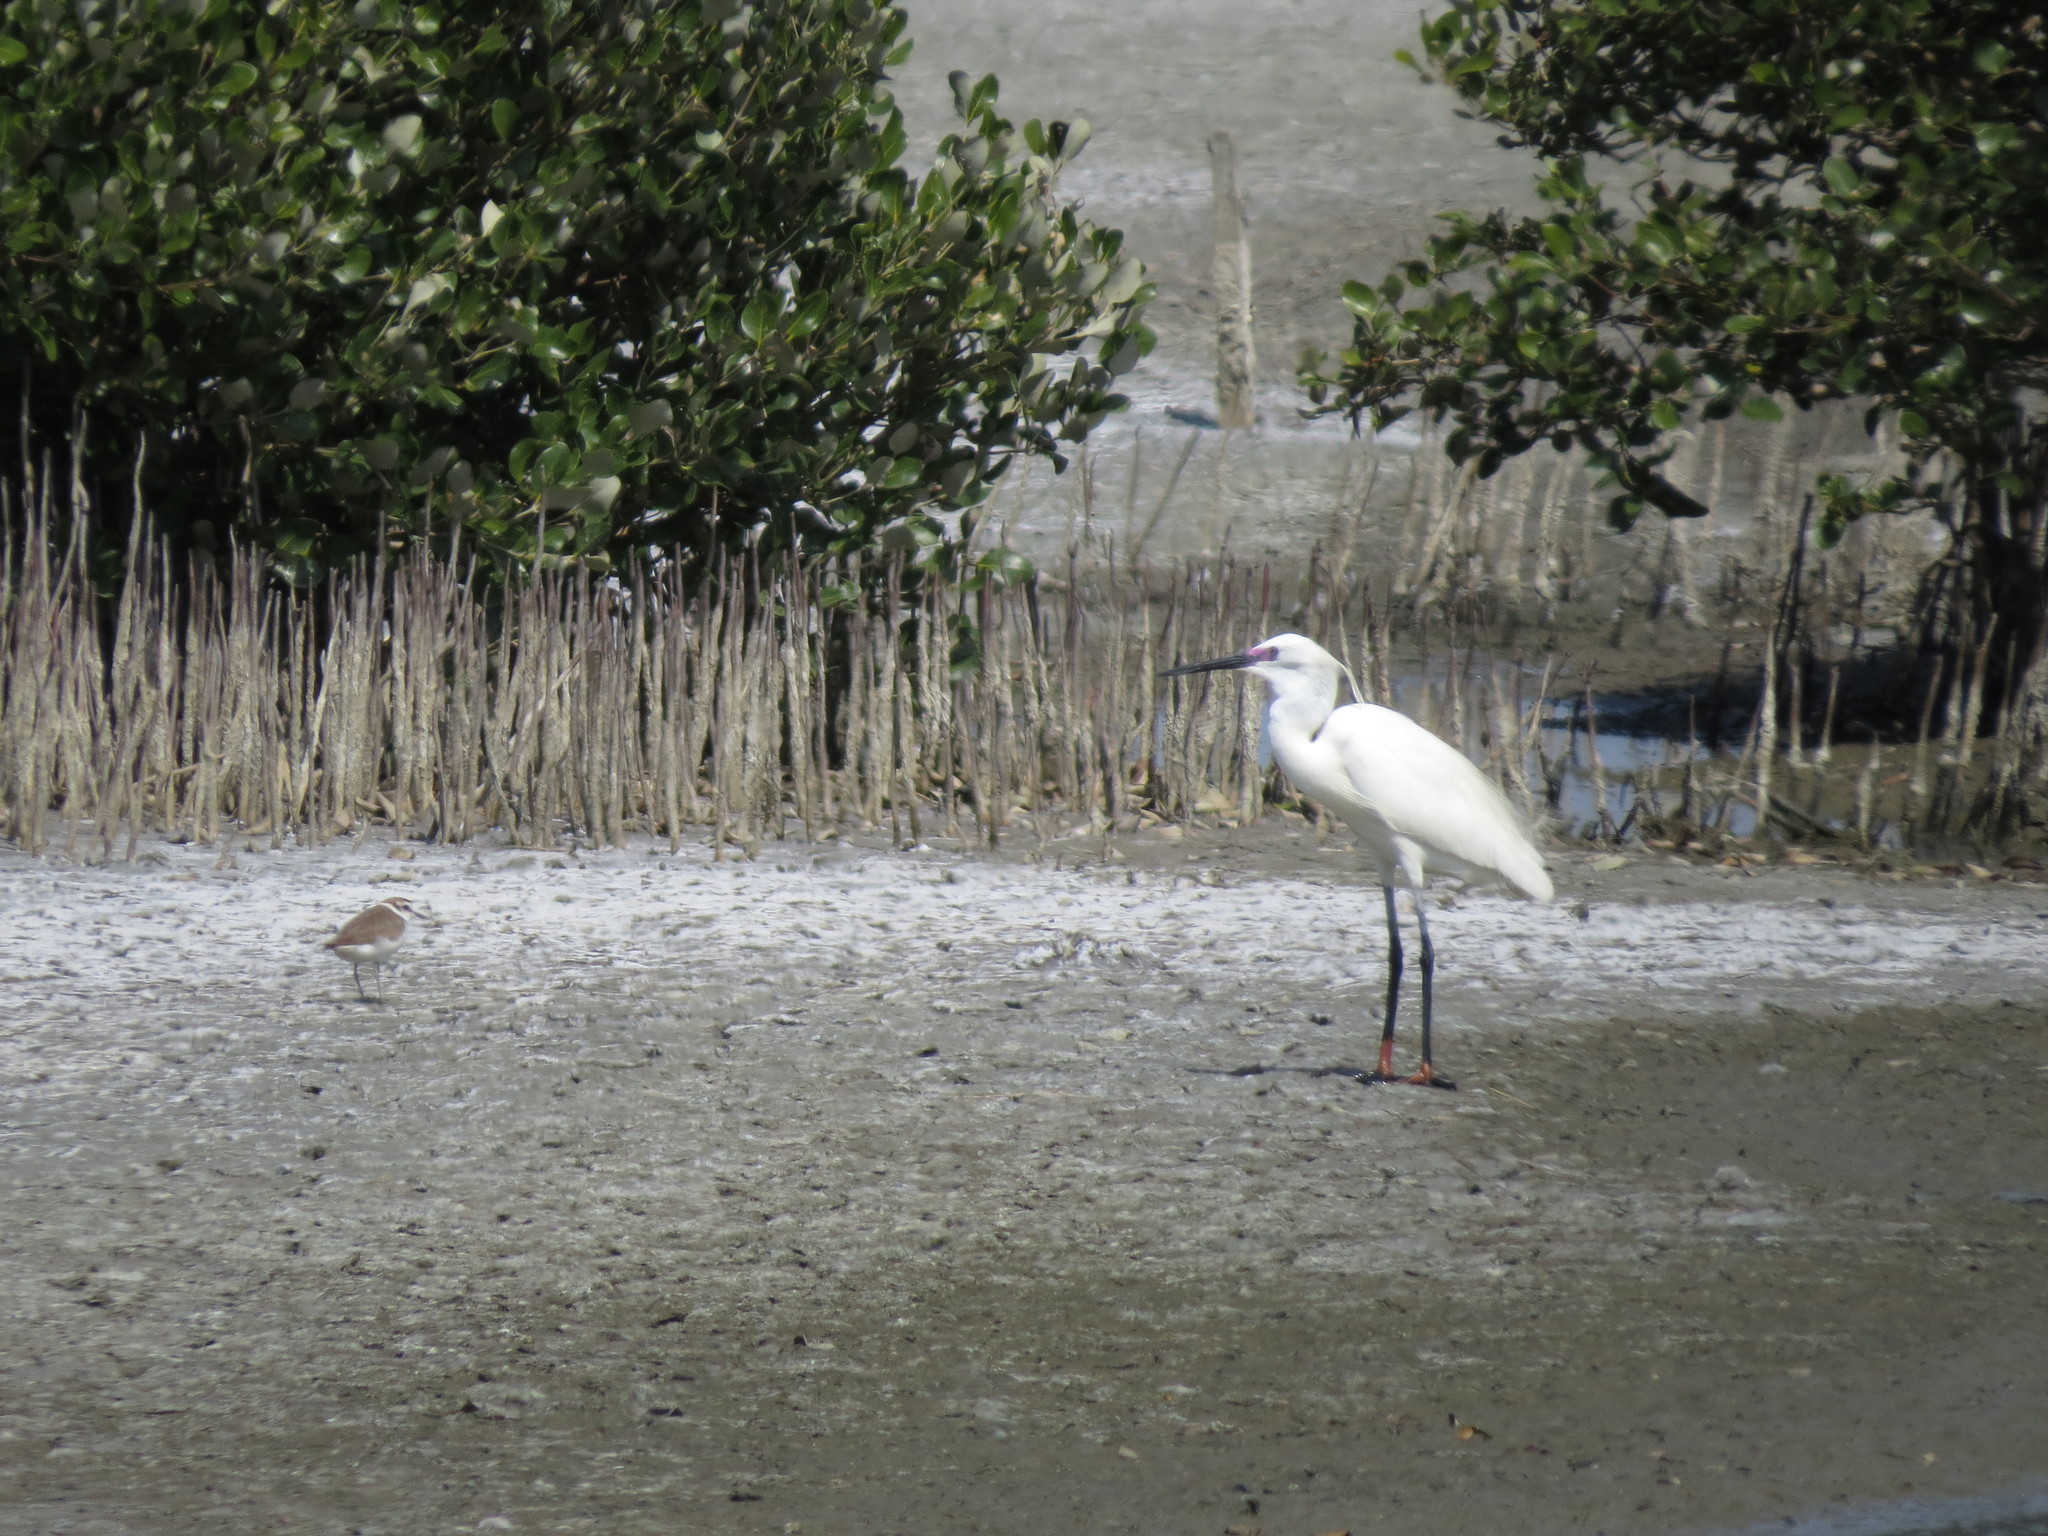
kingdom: Animalia
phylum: Chordata
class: Aves
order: Pelecaniformes
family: Ardeidae
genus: Egretta
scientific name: Egretta garzetta
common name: Little egret
